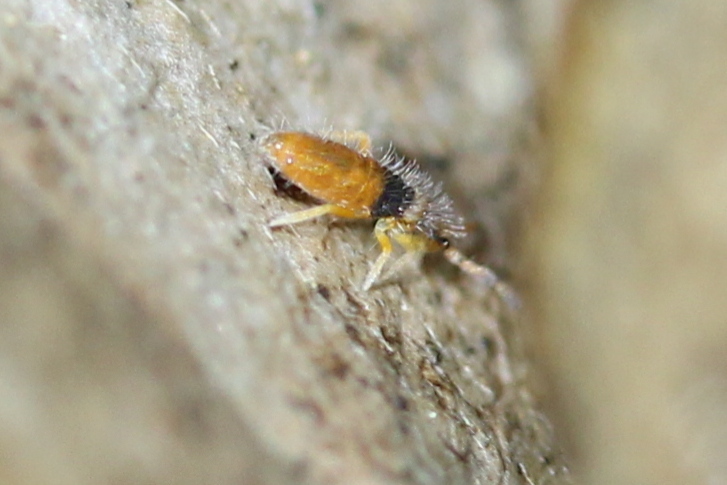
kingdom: Animalia
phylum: Arthropoda
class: Collembola
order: Entomobryomorpha
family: Entomobryidae
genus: Entomobrya
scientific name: Entomobrya atrocincta
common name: Springtail
